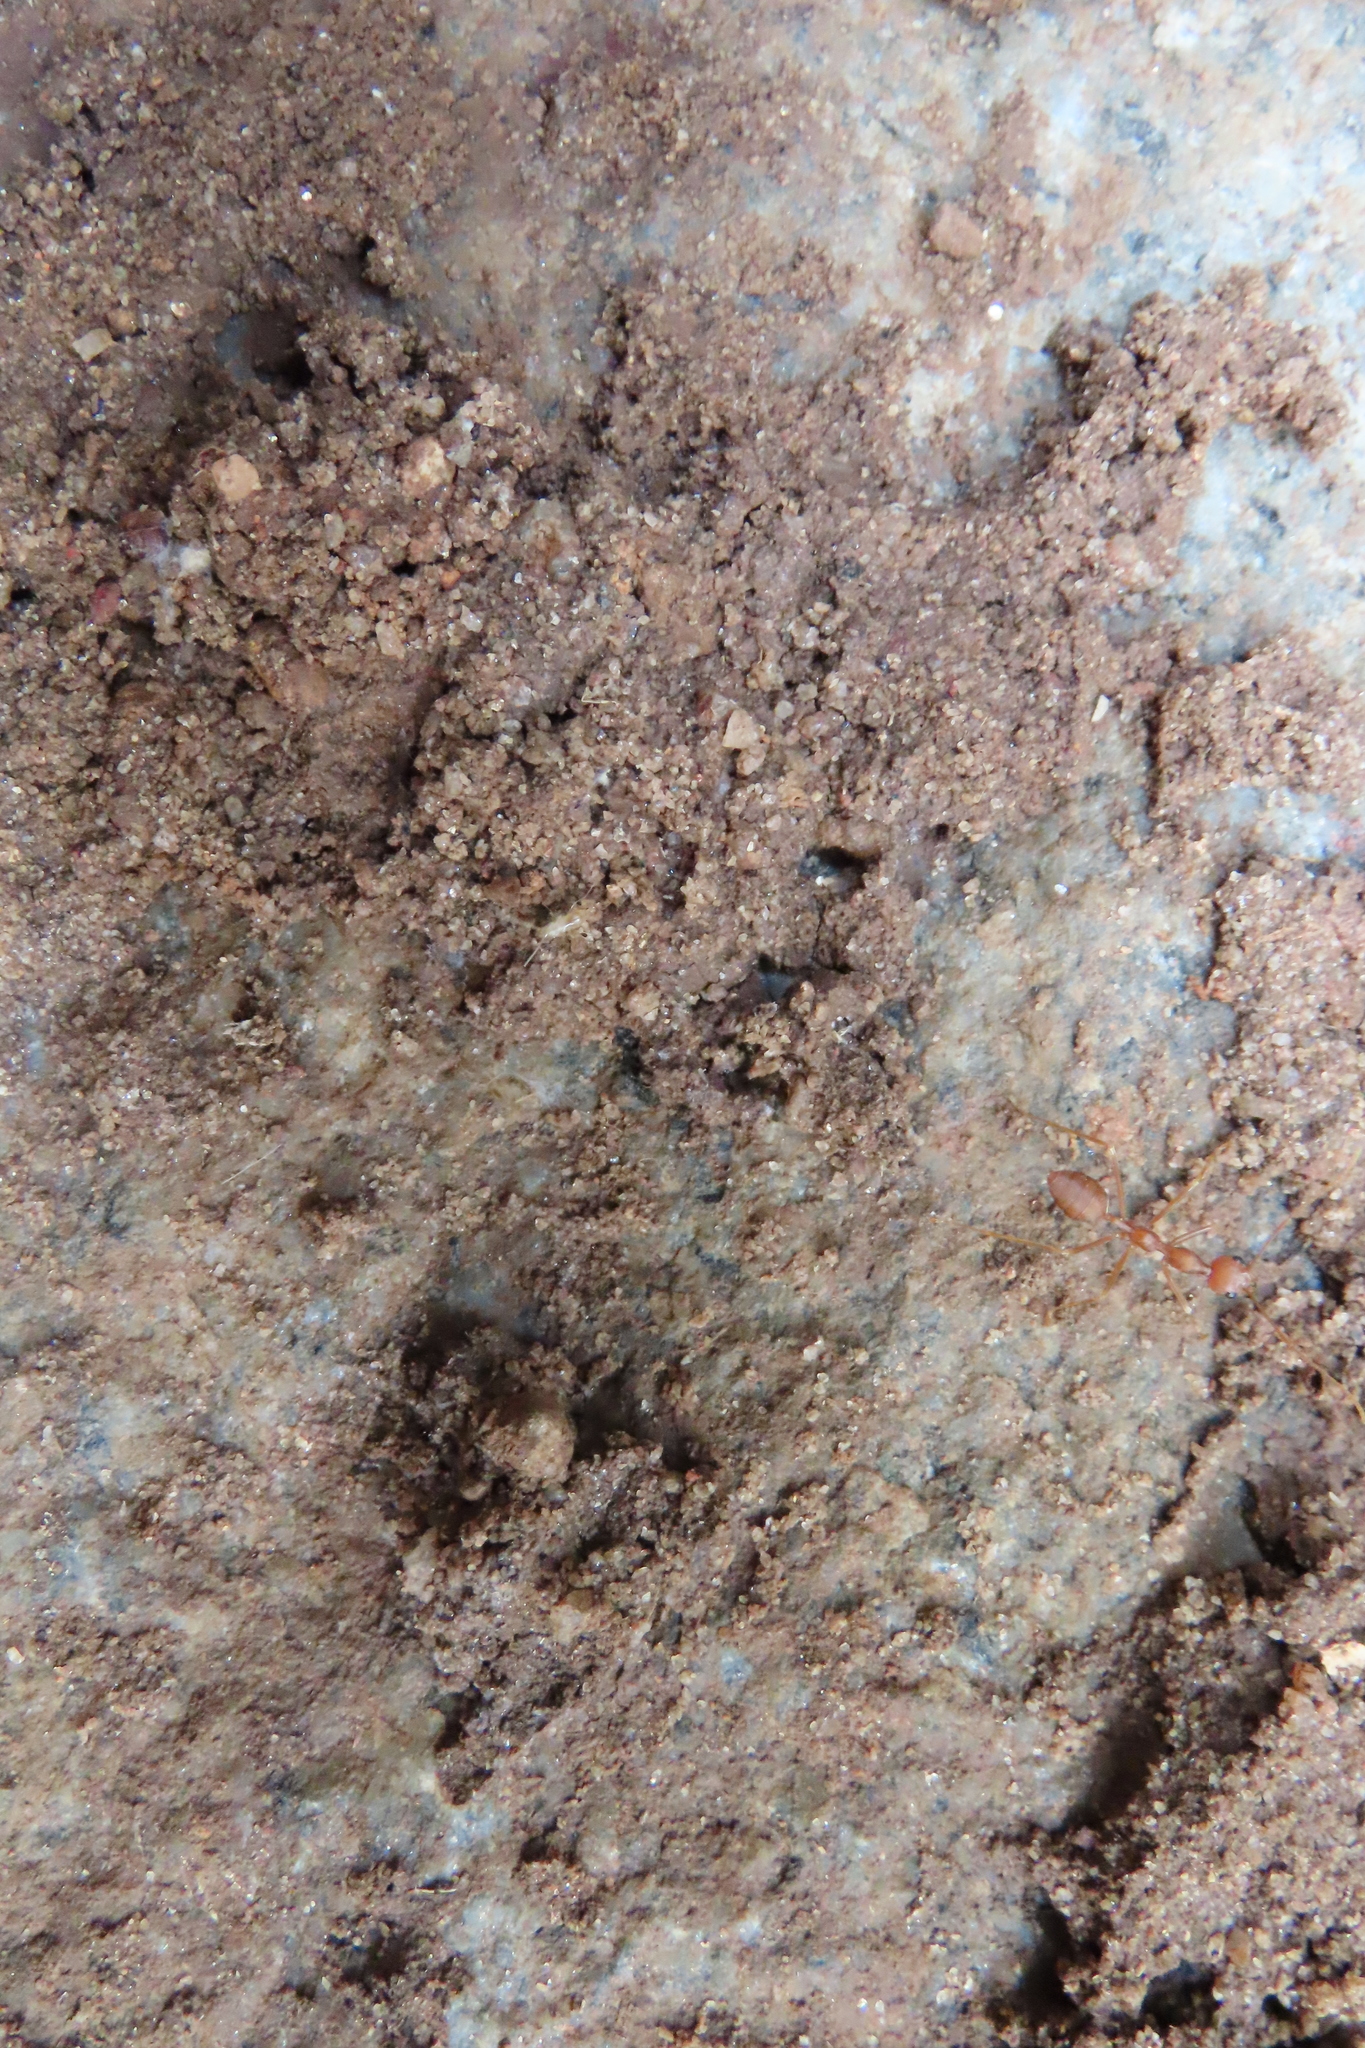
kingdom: Animalia
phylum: Arthropoda
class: Insecta
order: Hymenoptera
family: Formicidae
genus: Oecophylla
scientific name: Oecophylla smaragdina
